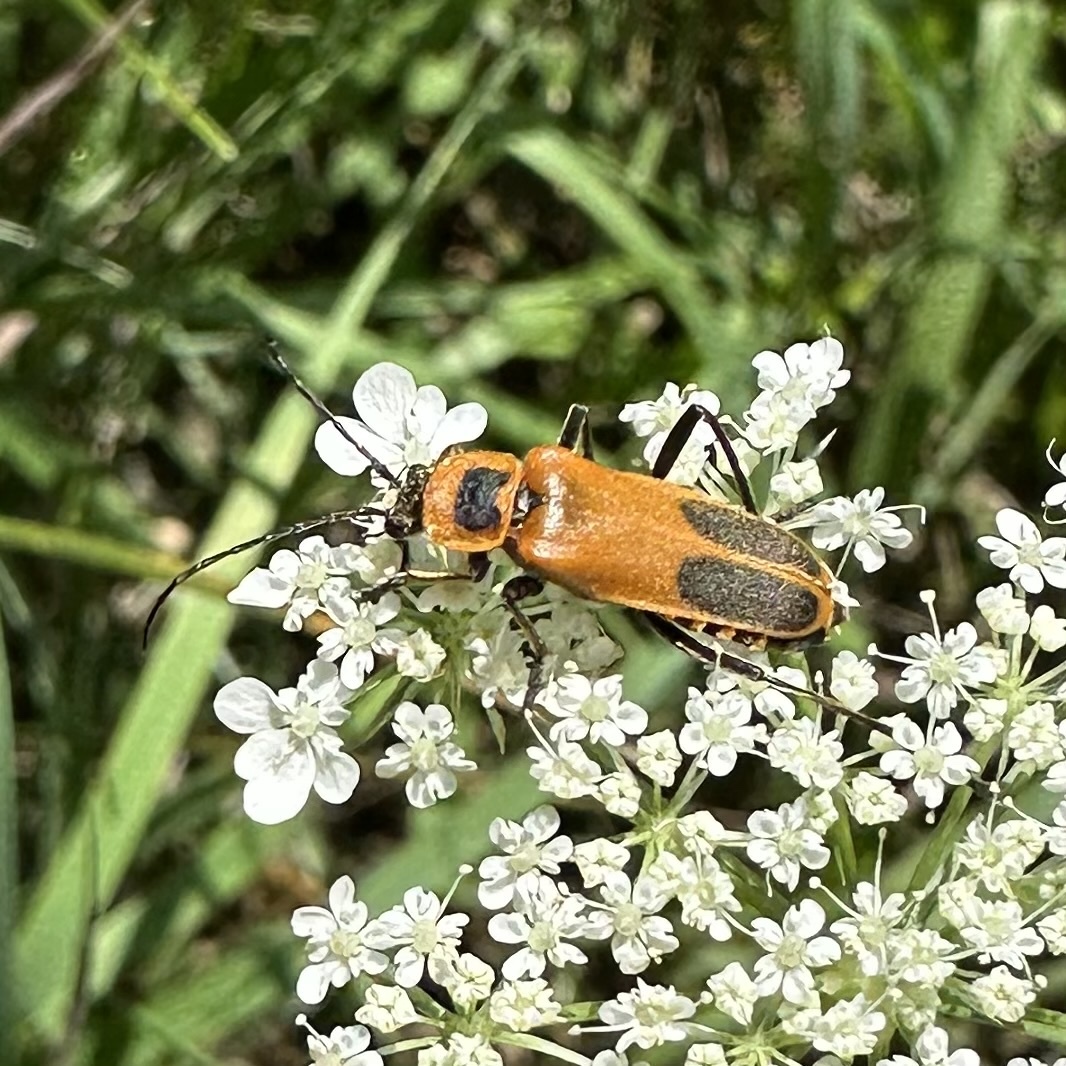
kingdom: Animalia
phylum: Arthropoda
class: Insecta
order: Coleoptera
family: Cantharidae
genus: Chauliognathus
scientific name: Chauliognathus pensylvanicus
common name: Goldenrod soldier beetle
